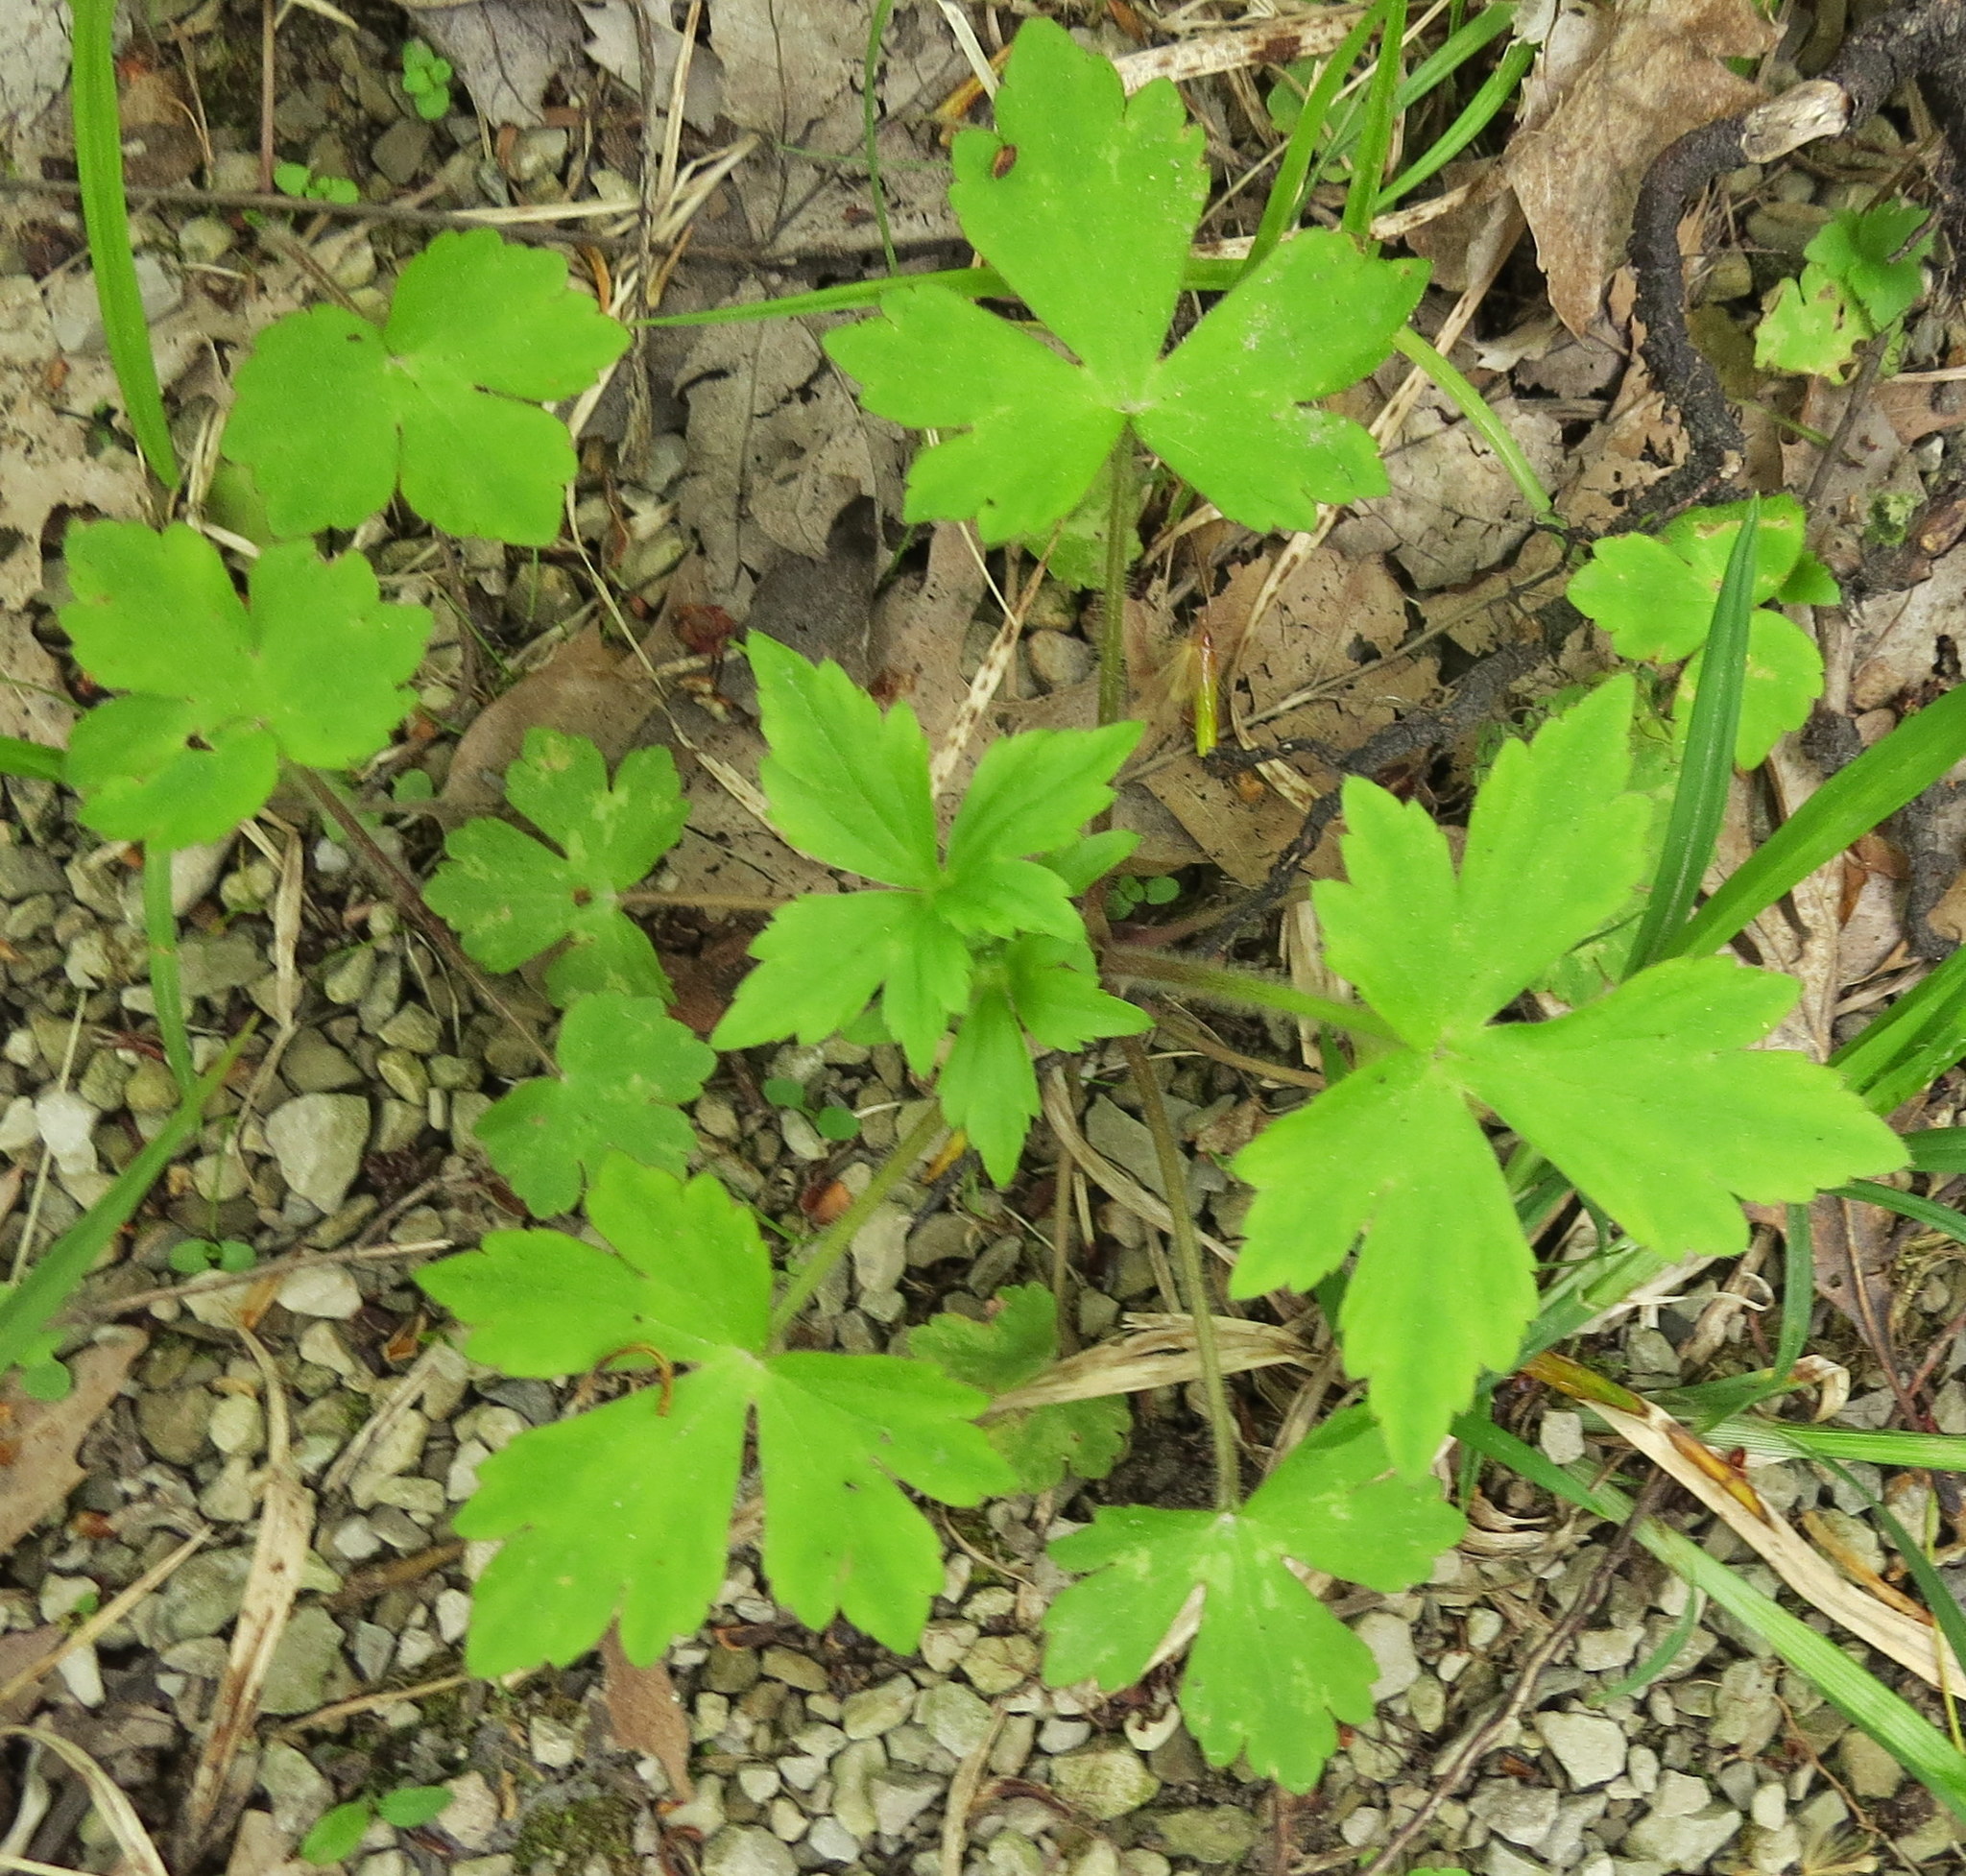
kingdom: Plantae
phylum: Tracheophyta
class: Magnoliopsida
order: Ranunculales
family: Ranunculaceae
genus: Ranunculus
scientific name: Ranunculus recurvatus
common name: Blisterwort
